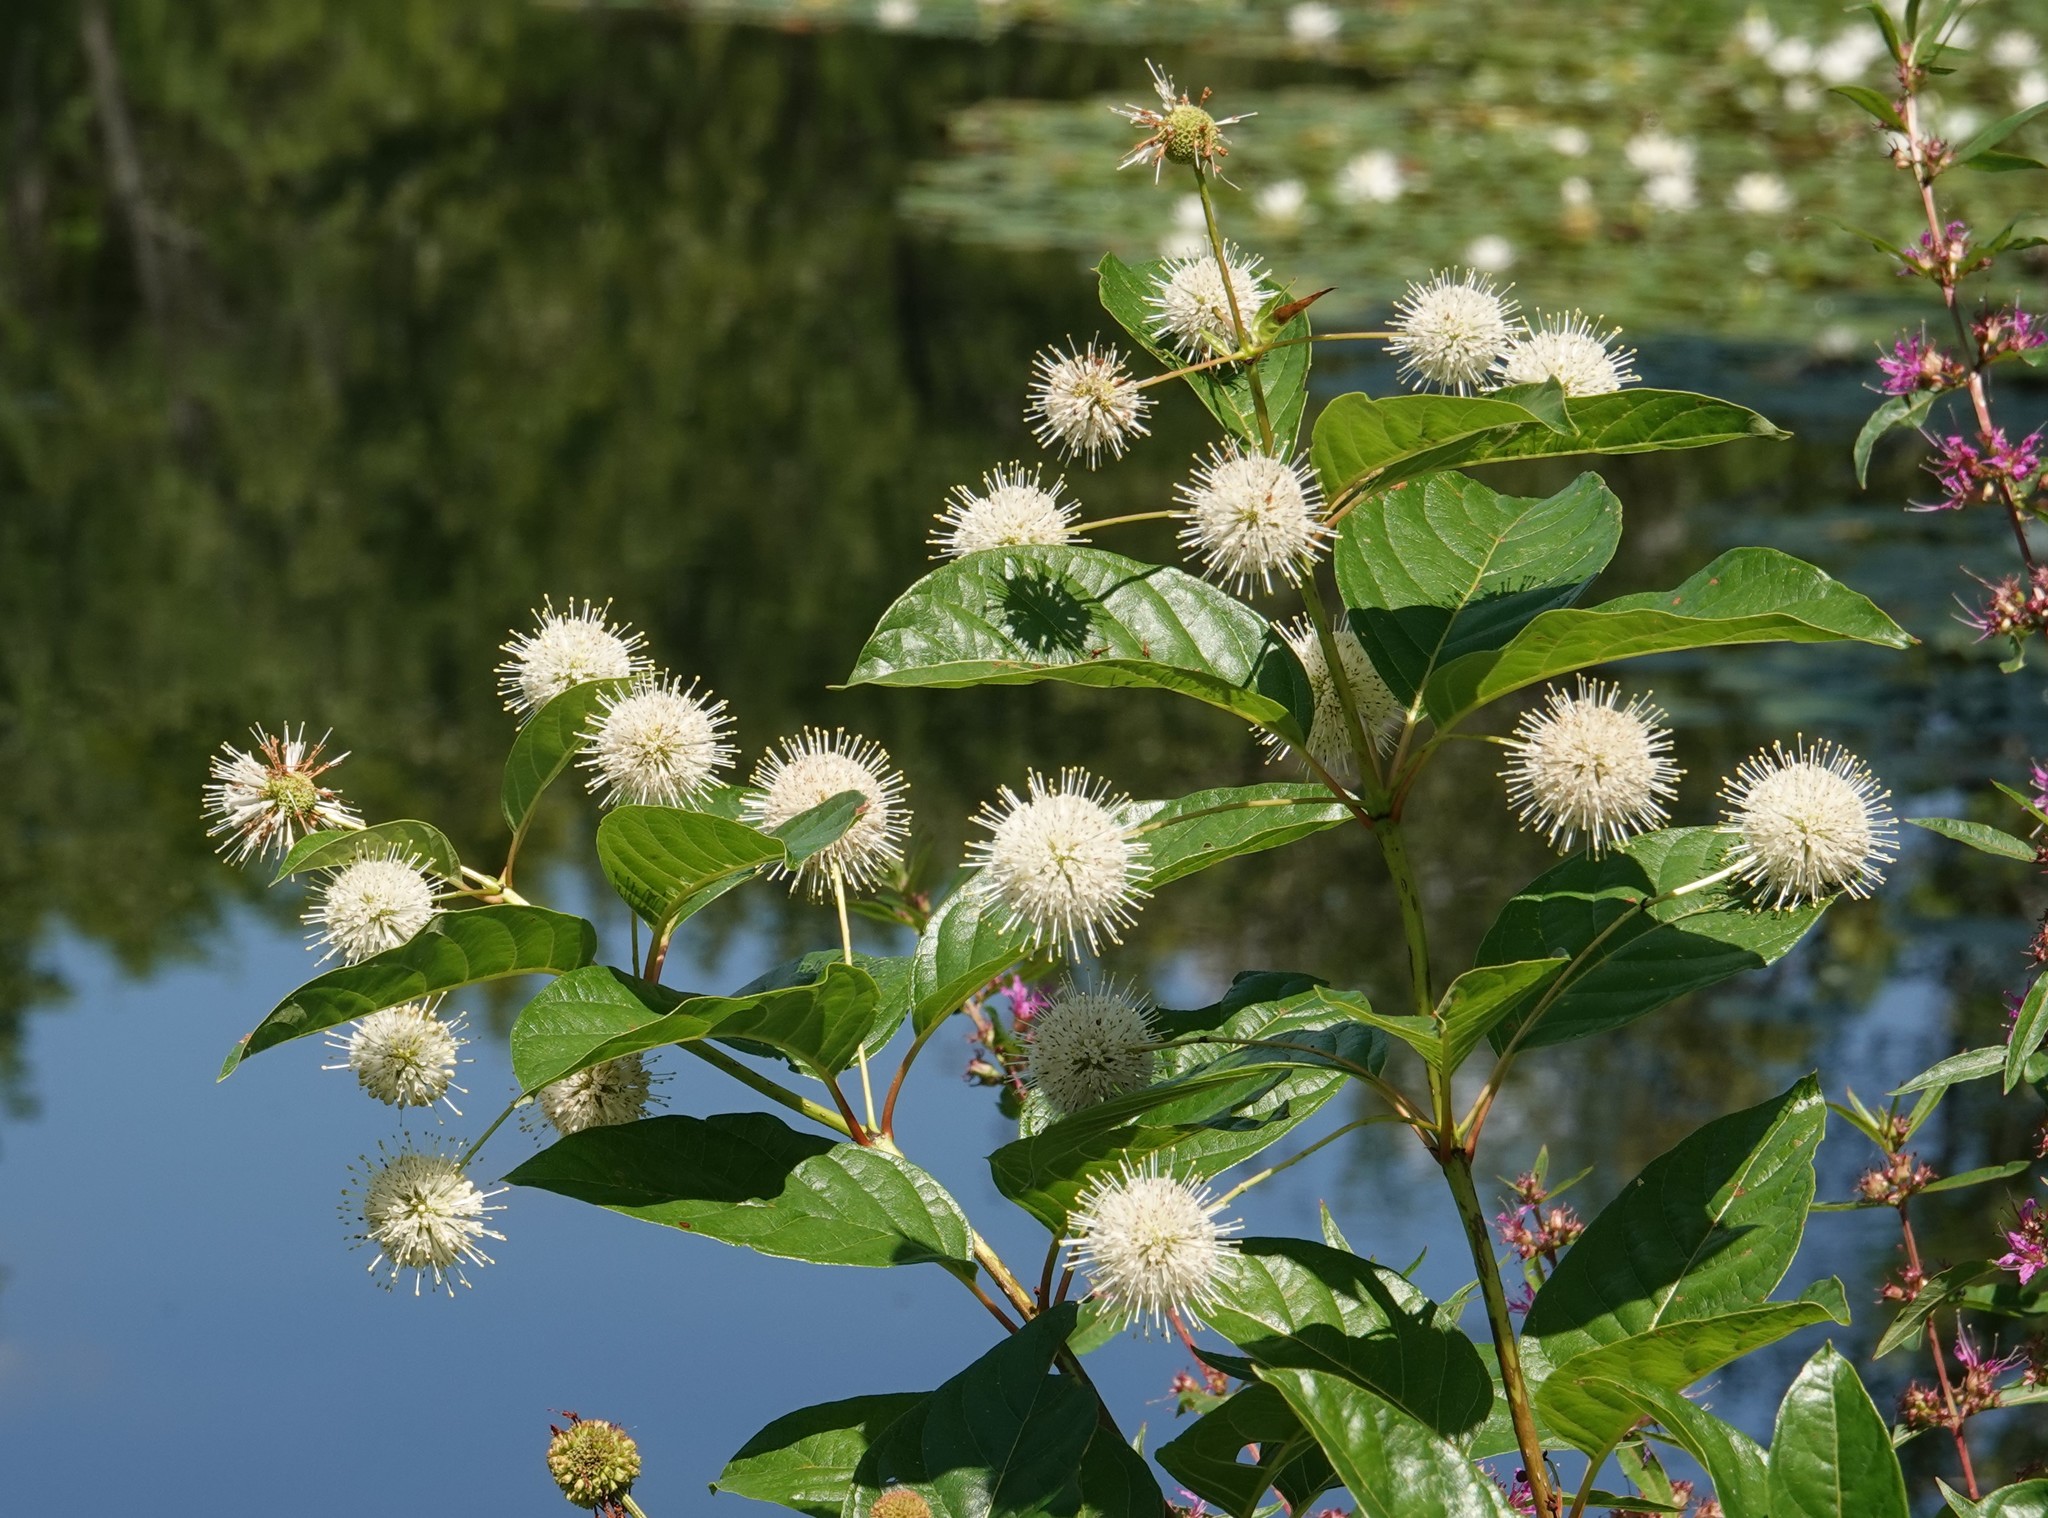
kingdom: Plantae
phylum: Tracheophyta
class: Magnoliopsida
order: Gentianales
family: Rubiaceae
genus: Cephalanthus
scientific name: Cephalanthus occidentalis
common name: Button-willow
